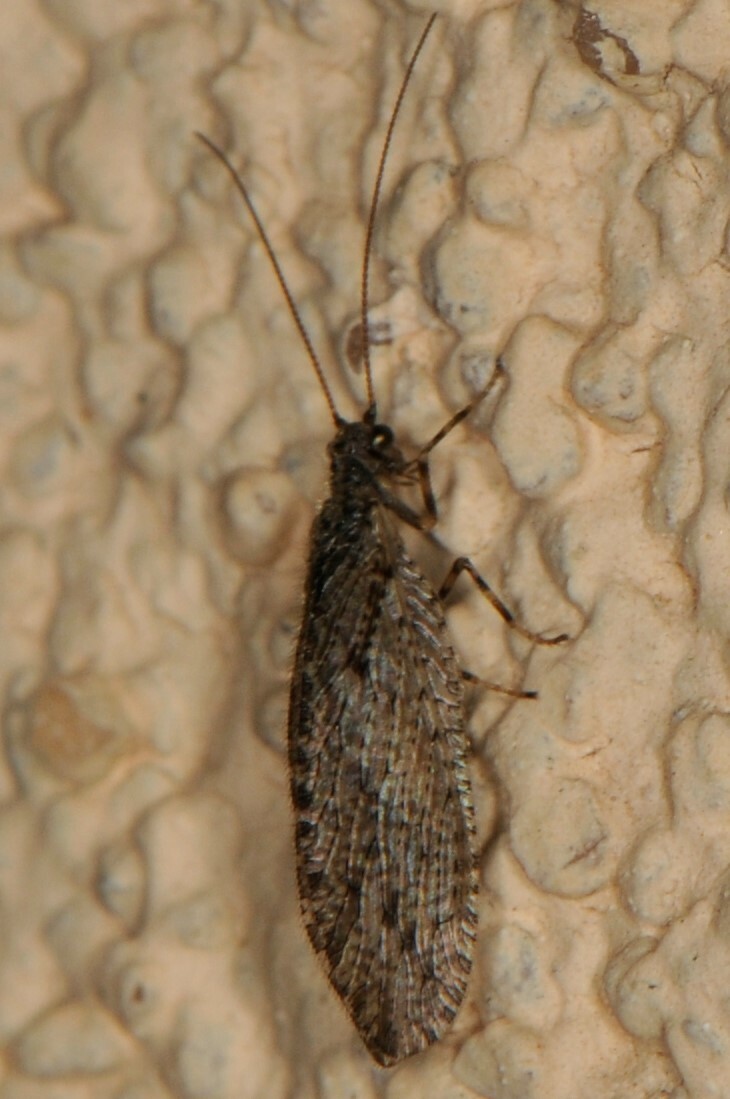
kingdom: Animalia
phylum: Arthropoda
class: Insecta
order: Neuroptera
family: Hemerobiidae
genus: Micromus
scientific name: Micromus variolosus
